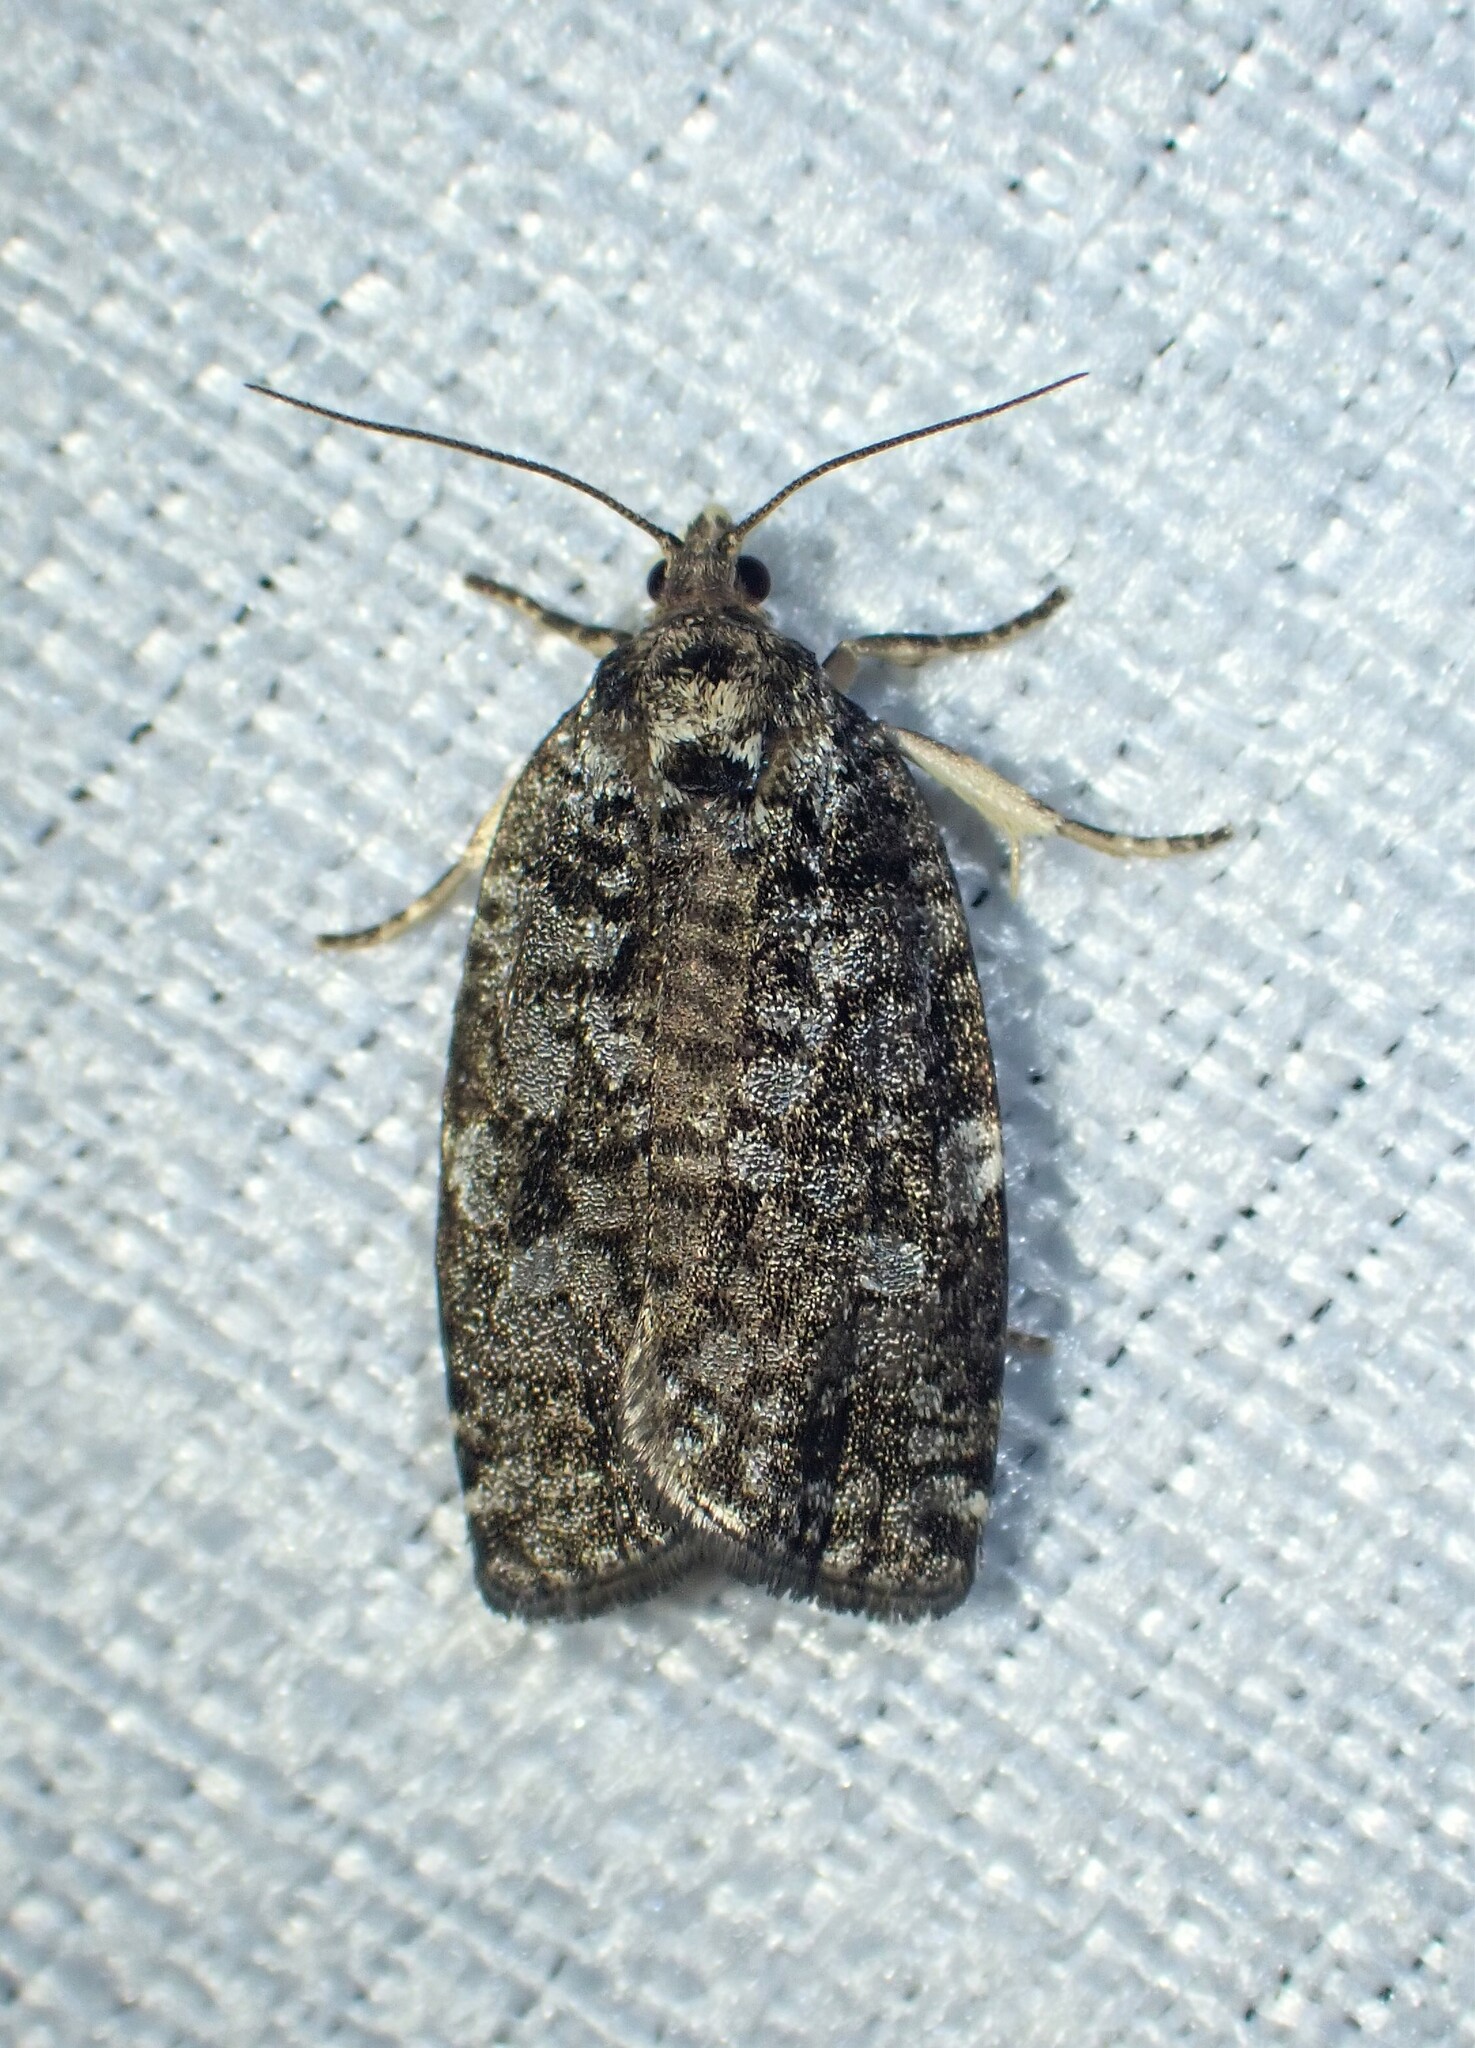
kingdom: Animalia
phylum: Arthropoda
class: Insecta
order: Lepidoptera
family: Tortricidae
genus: Choristoneura
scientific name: Choristoneura fumiferana
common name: Spruce budworm
